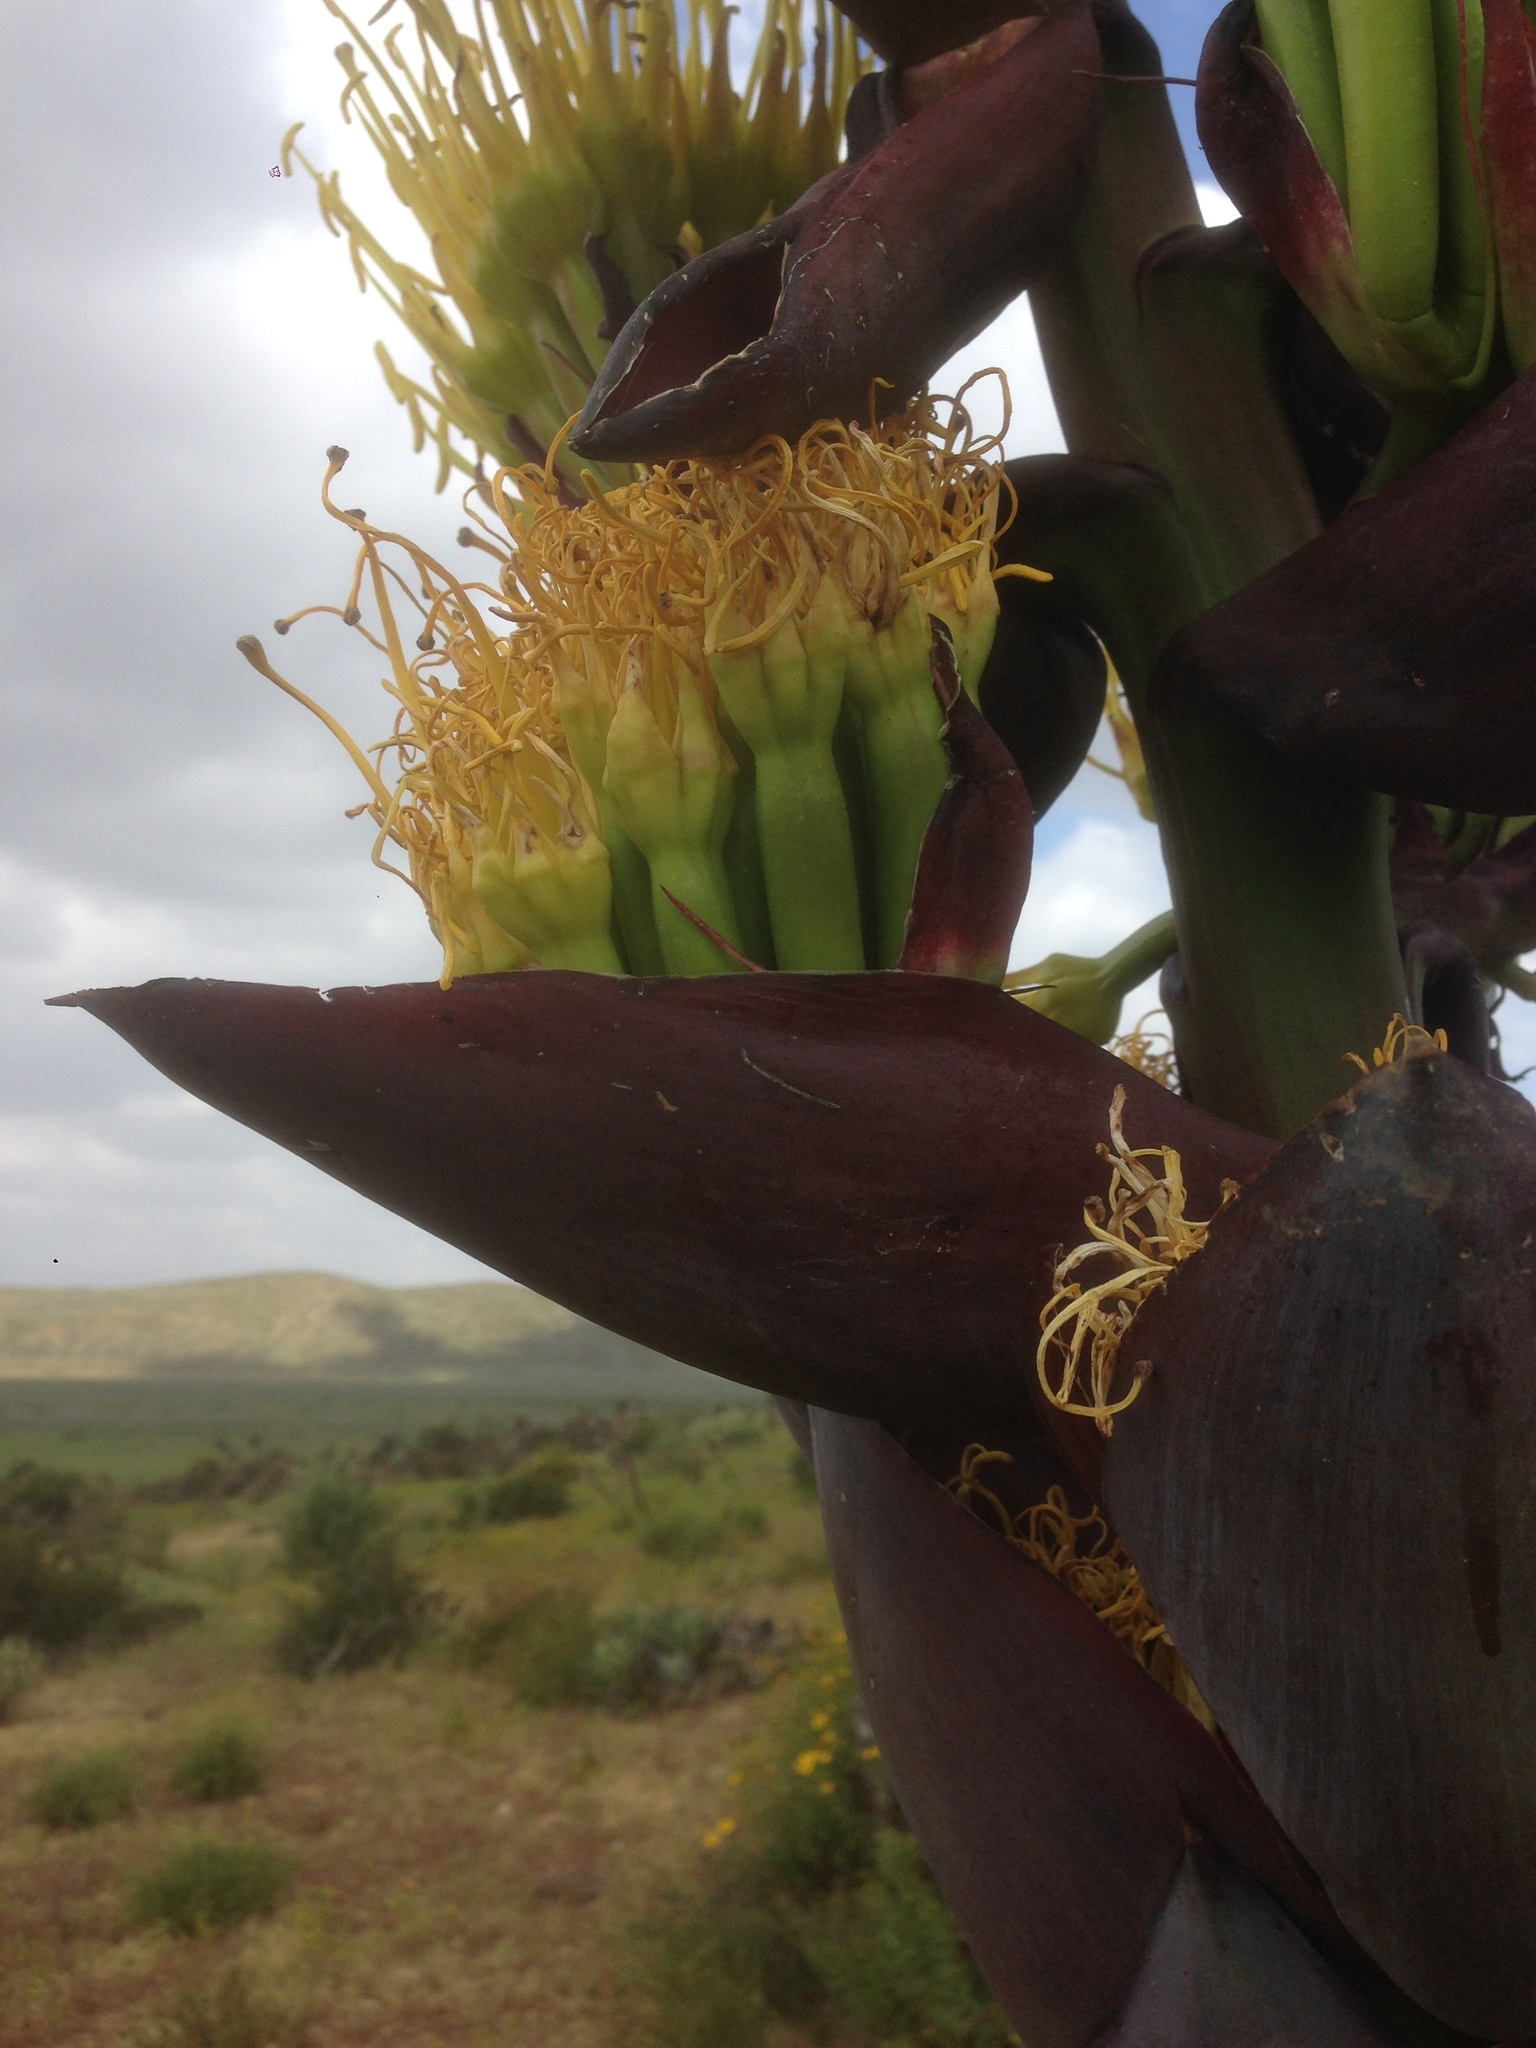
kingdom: Plantae
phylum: Tracheophyta
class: Liliopsida
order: Asparagales
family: Asparagaceae
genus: Agave
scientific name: Agave shawii
